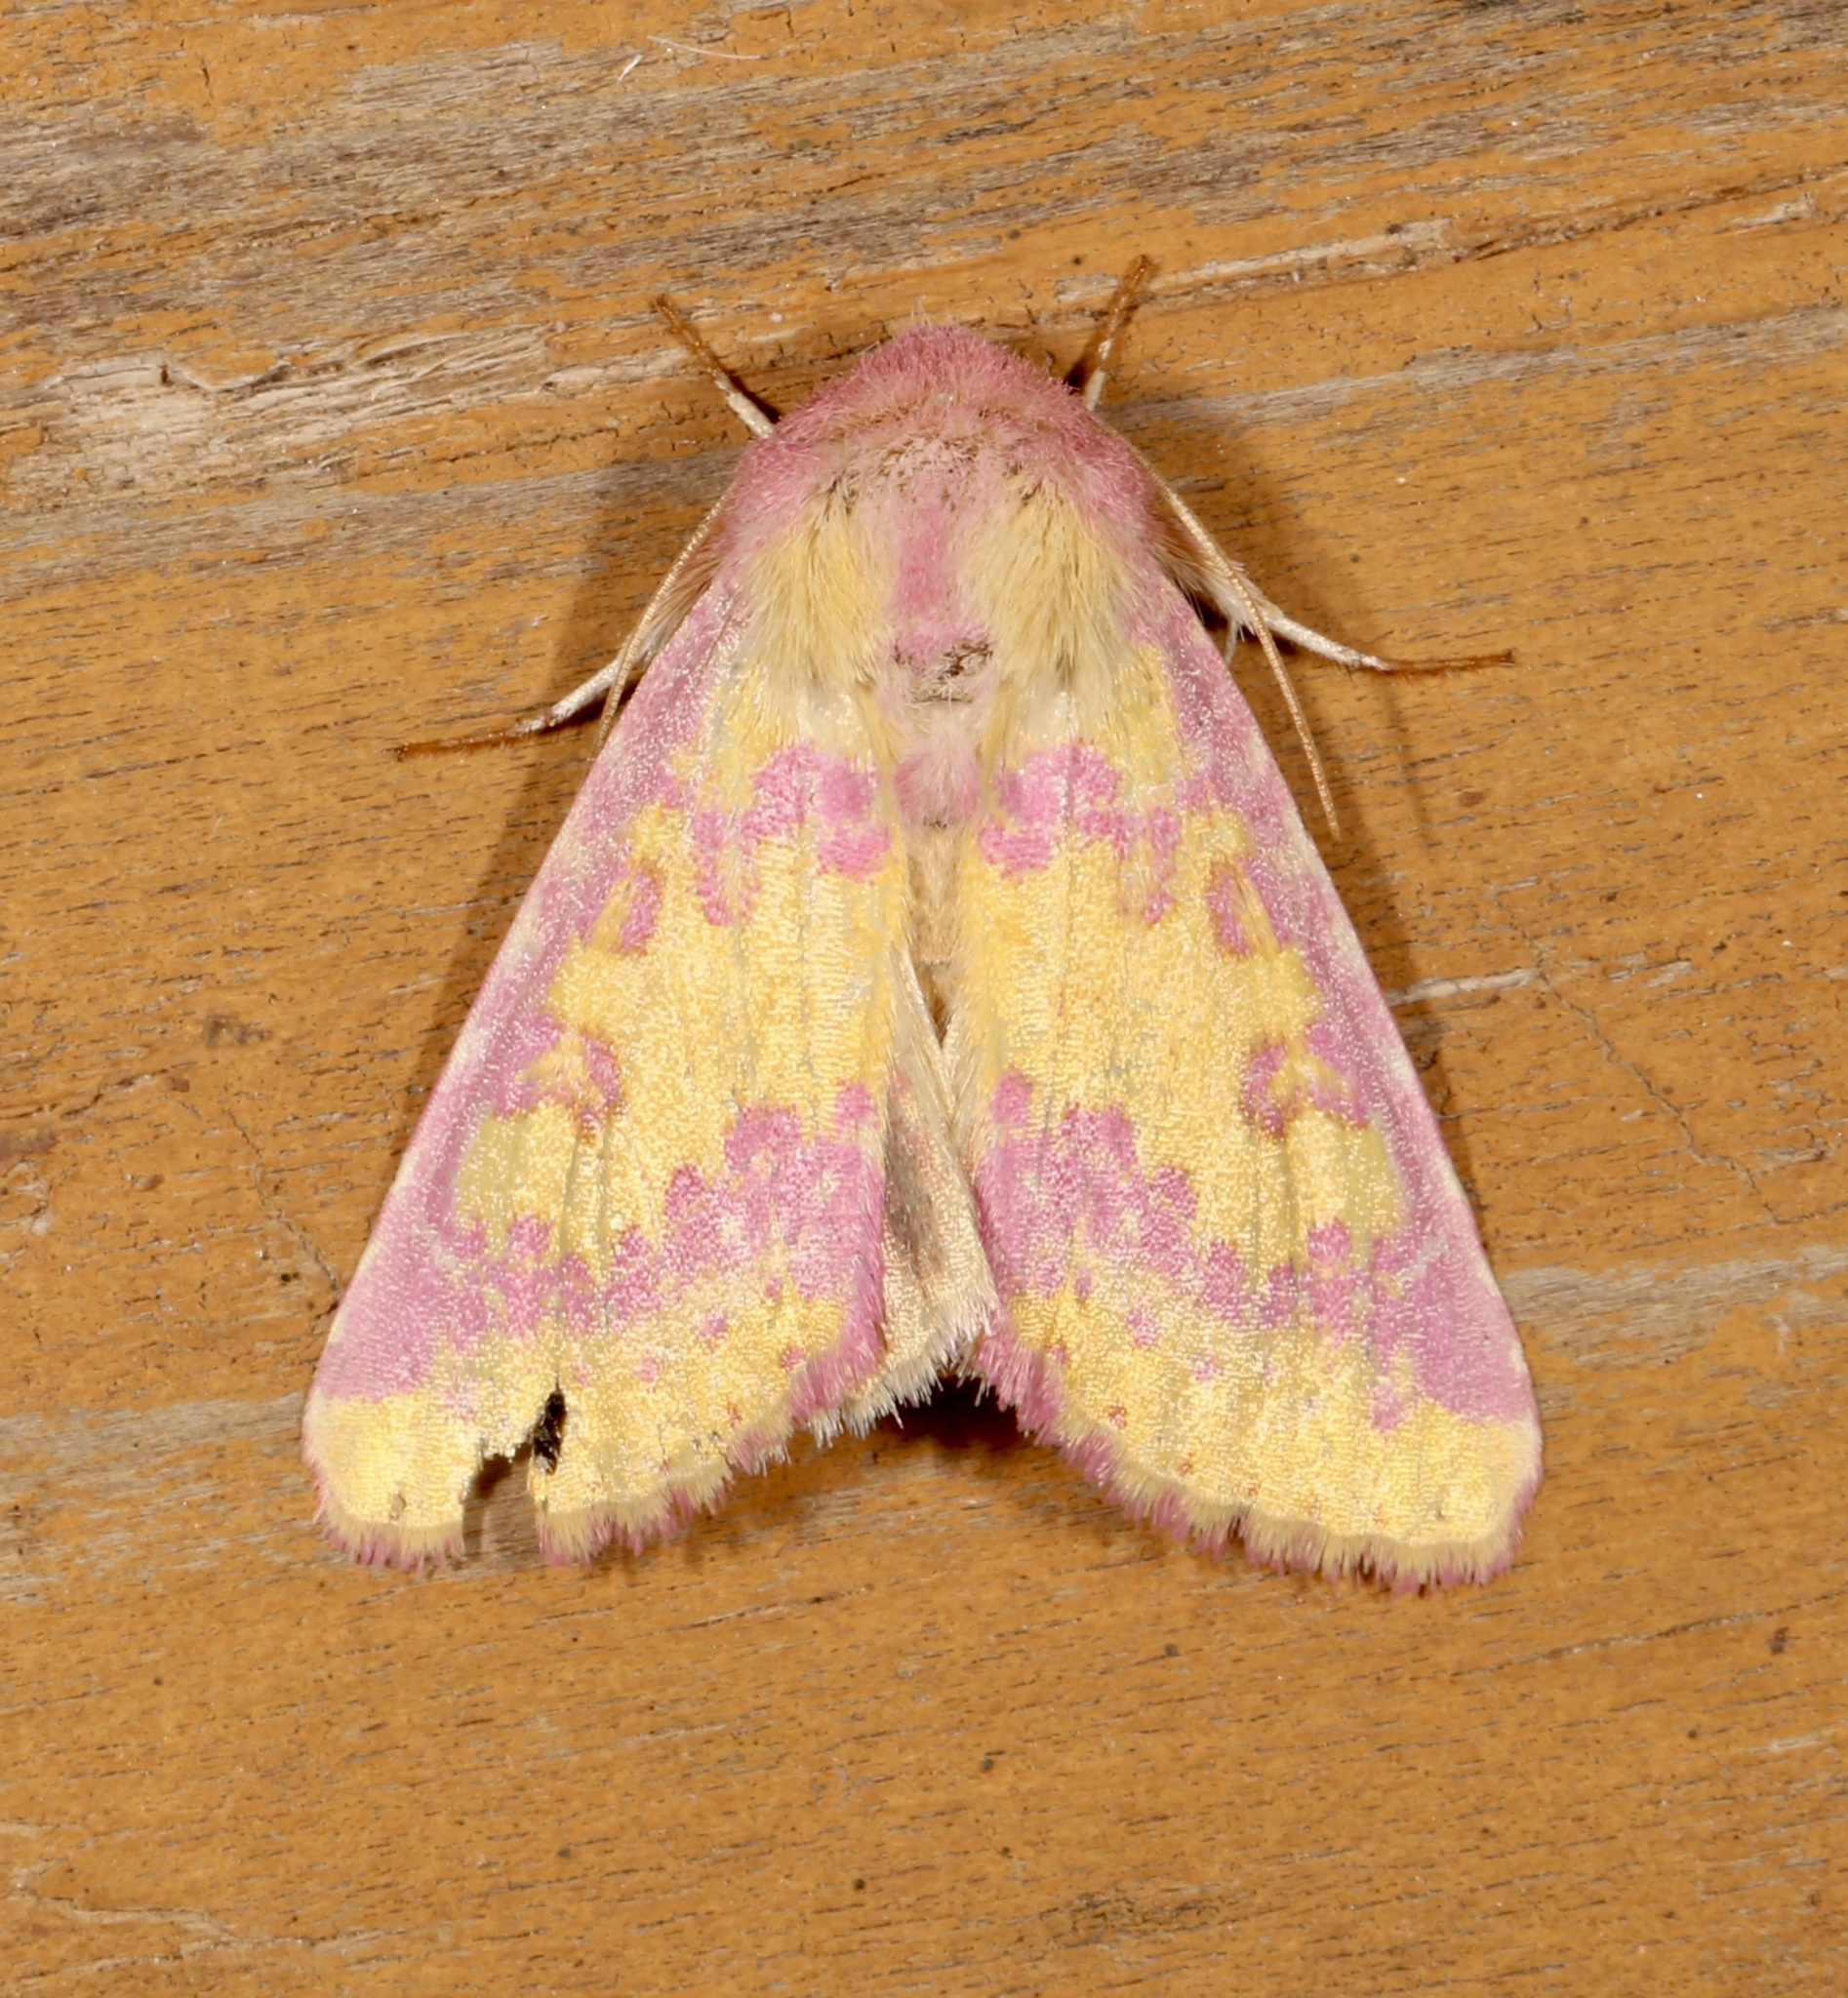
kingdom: Animalia
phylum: Arthropoda
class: Insecta
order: Lepidoptera
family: Noctuidae
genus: Psectrotarsia
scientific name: Psectrotarsia suavis
